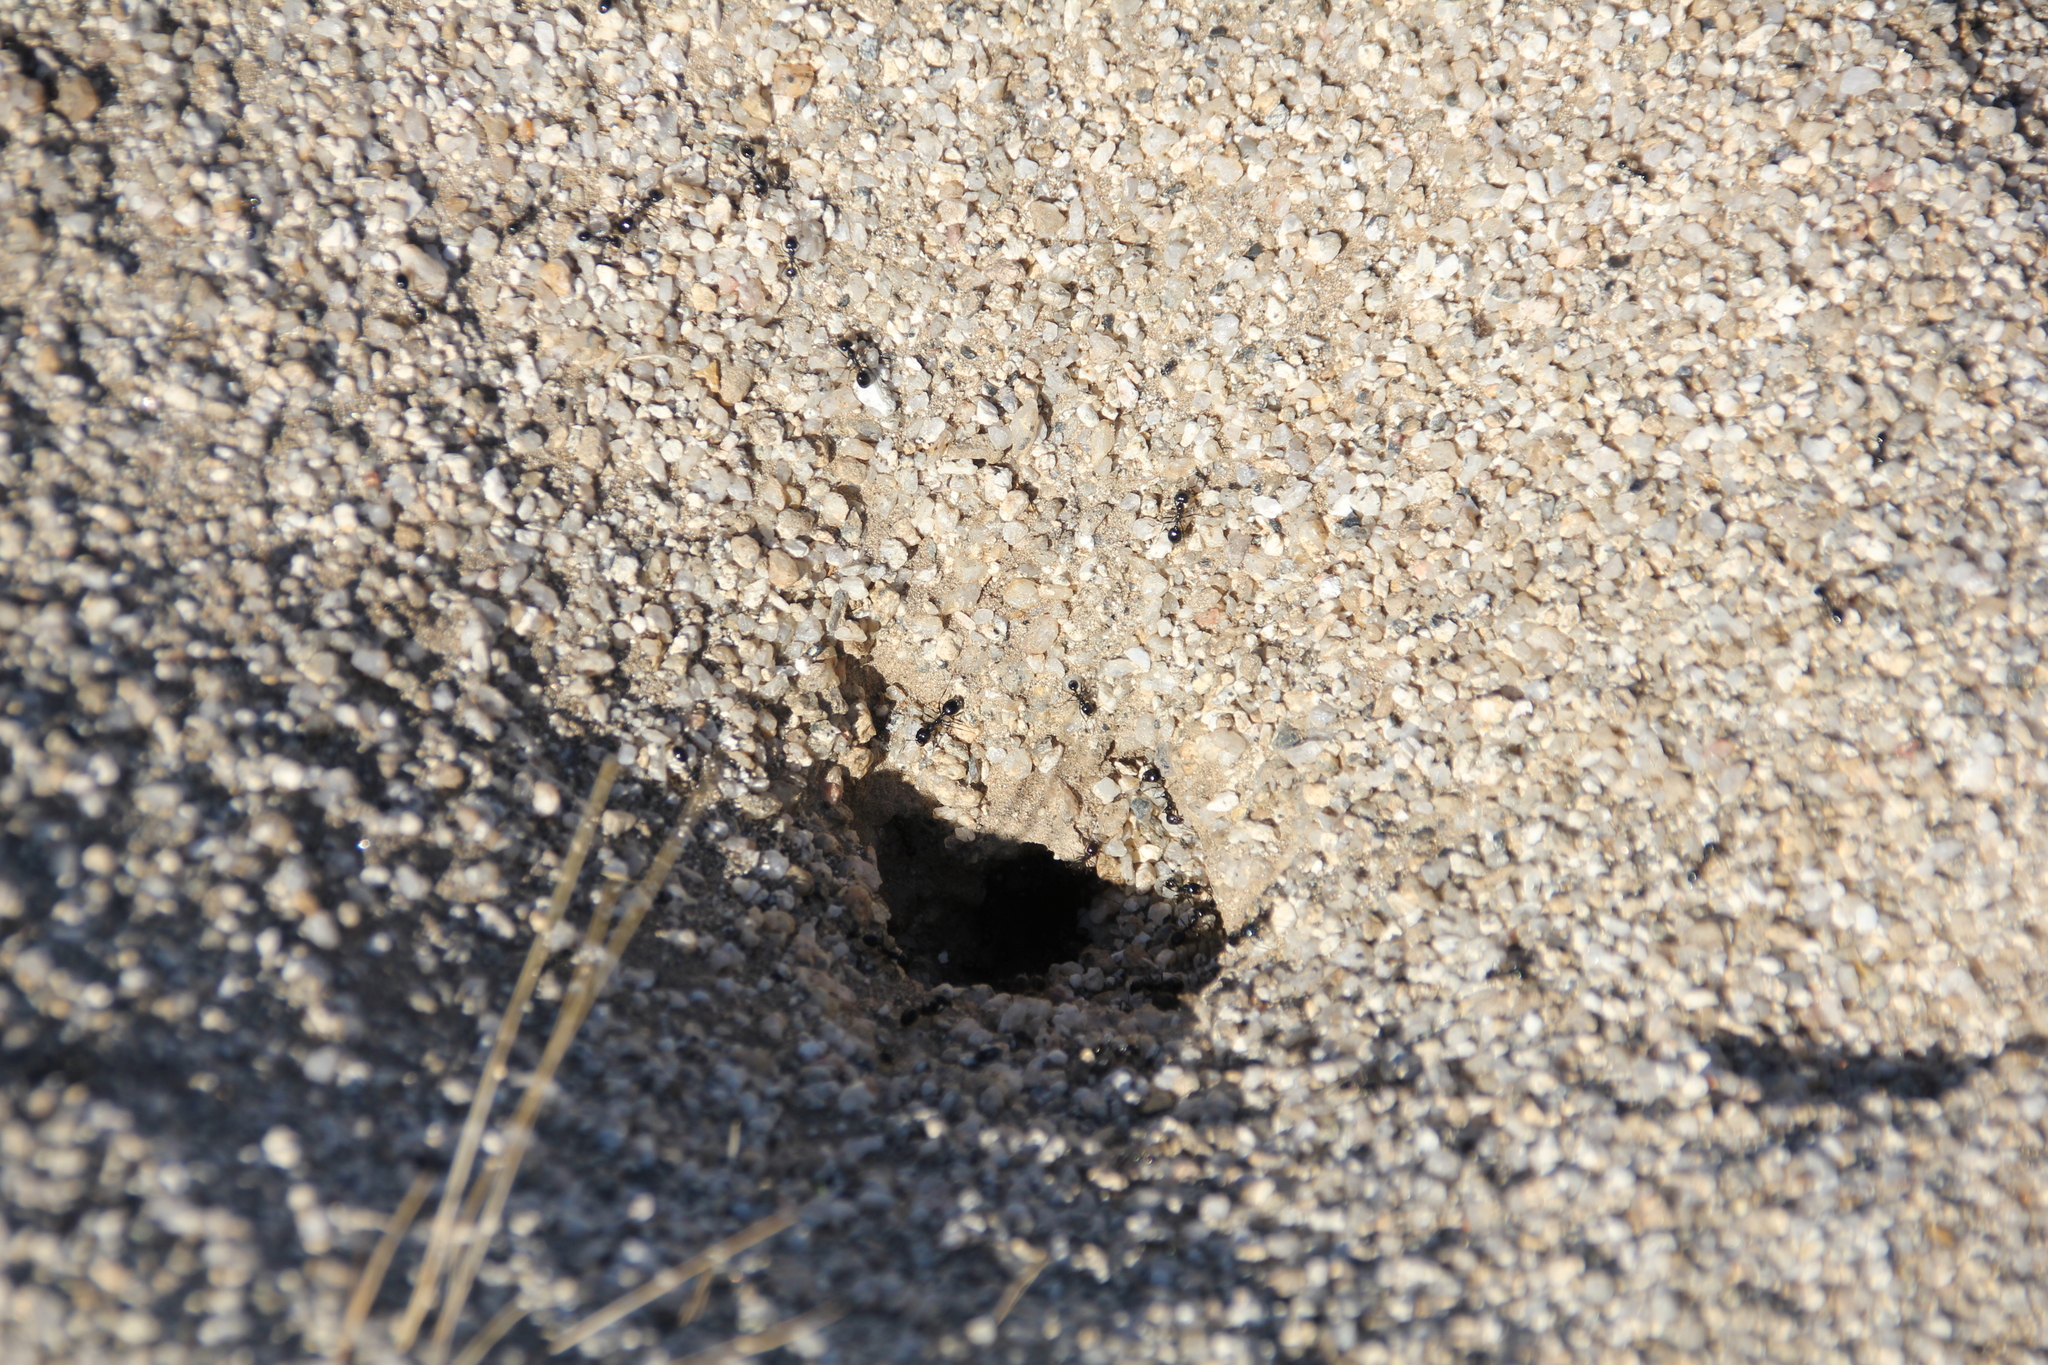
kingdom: Animalia
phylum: Arthropoda
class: Insecta
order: Hymenoptera
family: Formicidae
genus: Messor
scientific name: Messor pergandei
